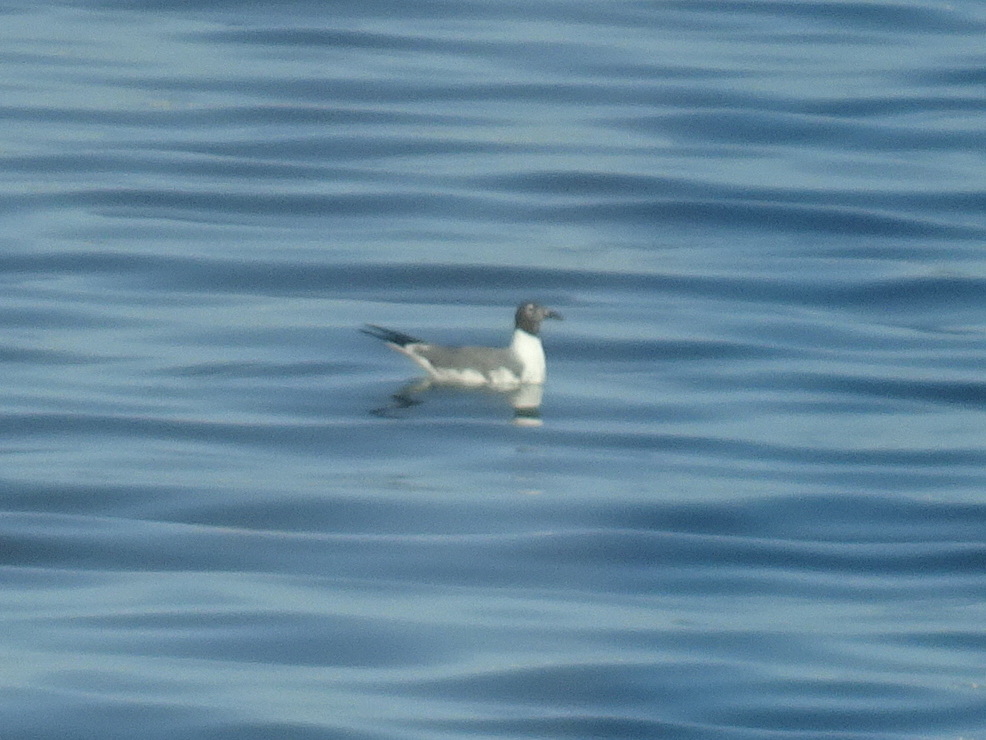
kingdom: Animalia
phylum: Chordata
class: Aves
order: Charadriiformes
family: Laridae
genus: Leucophaeus
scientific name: Leucophaeus atricilla
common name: Laughing gull
